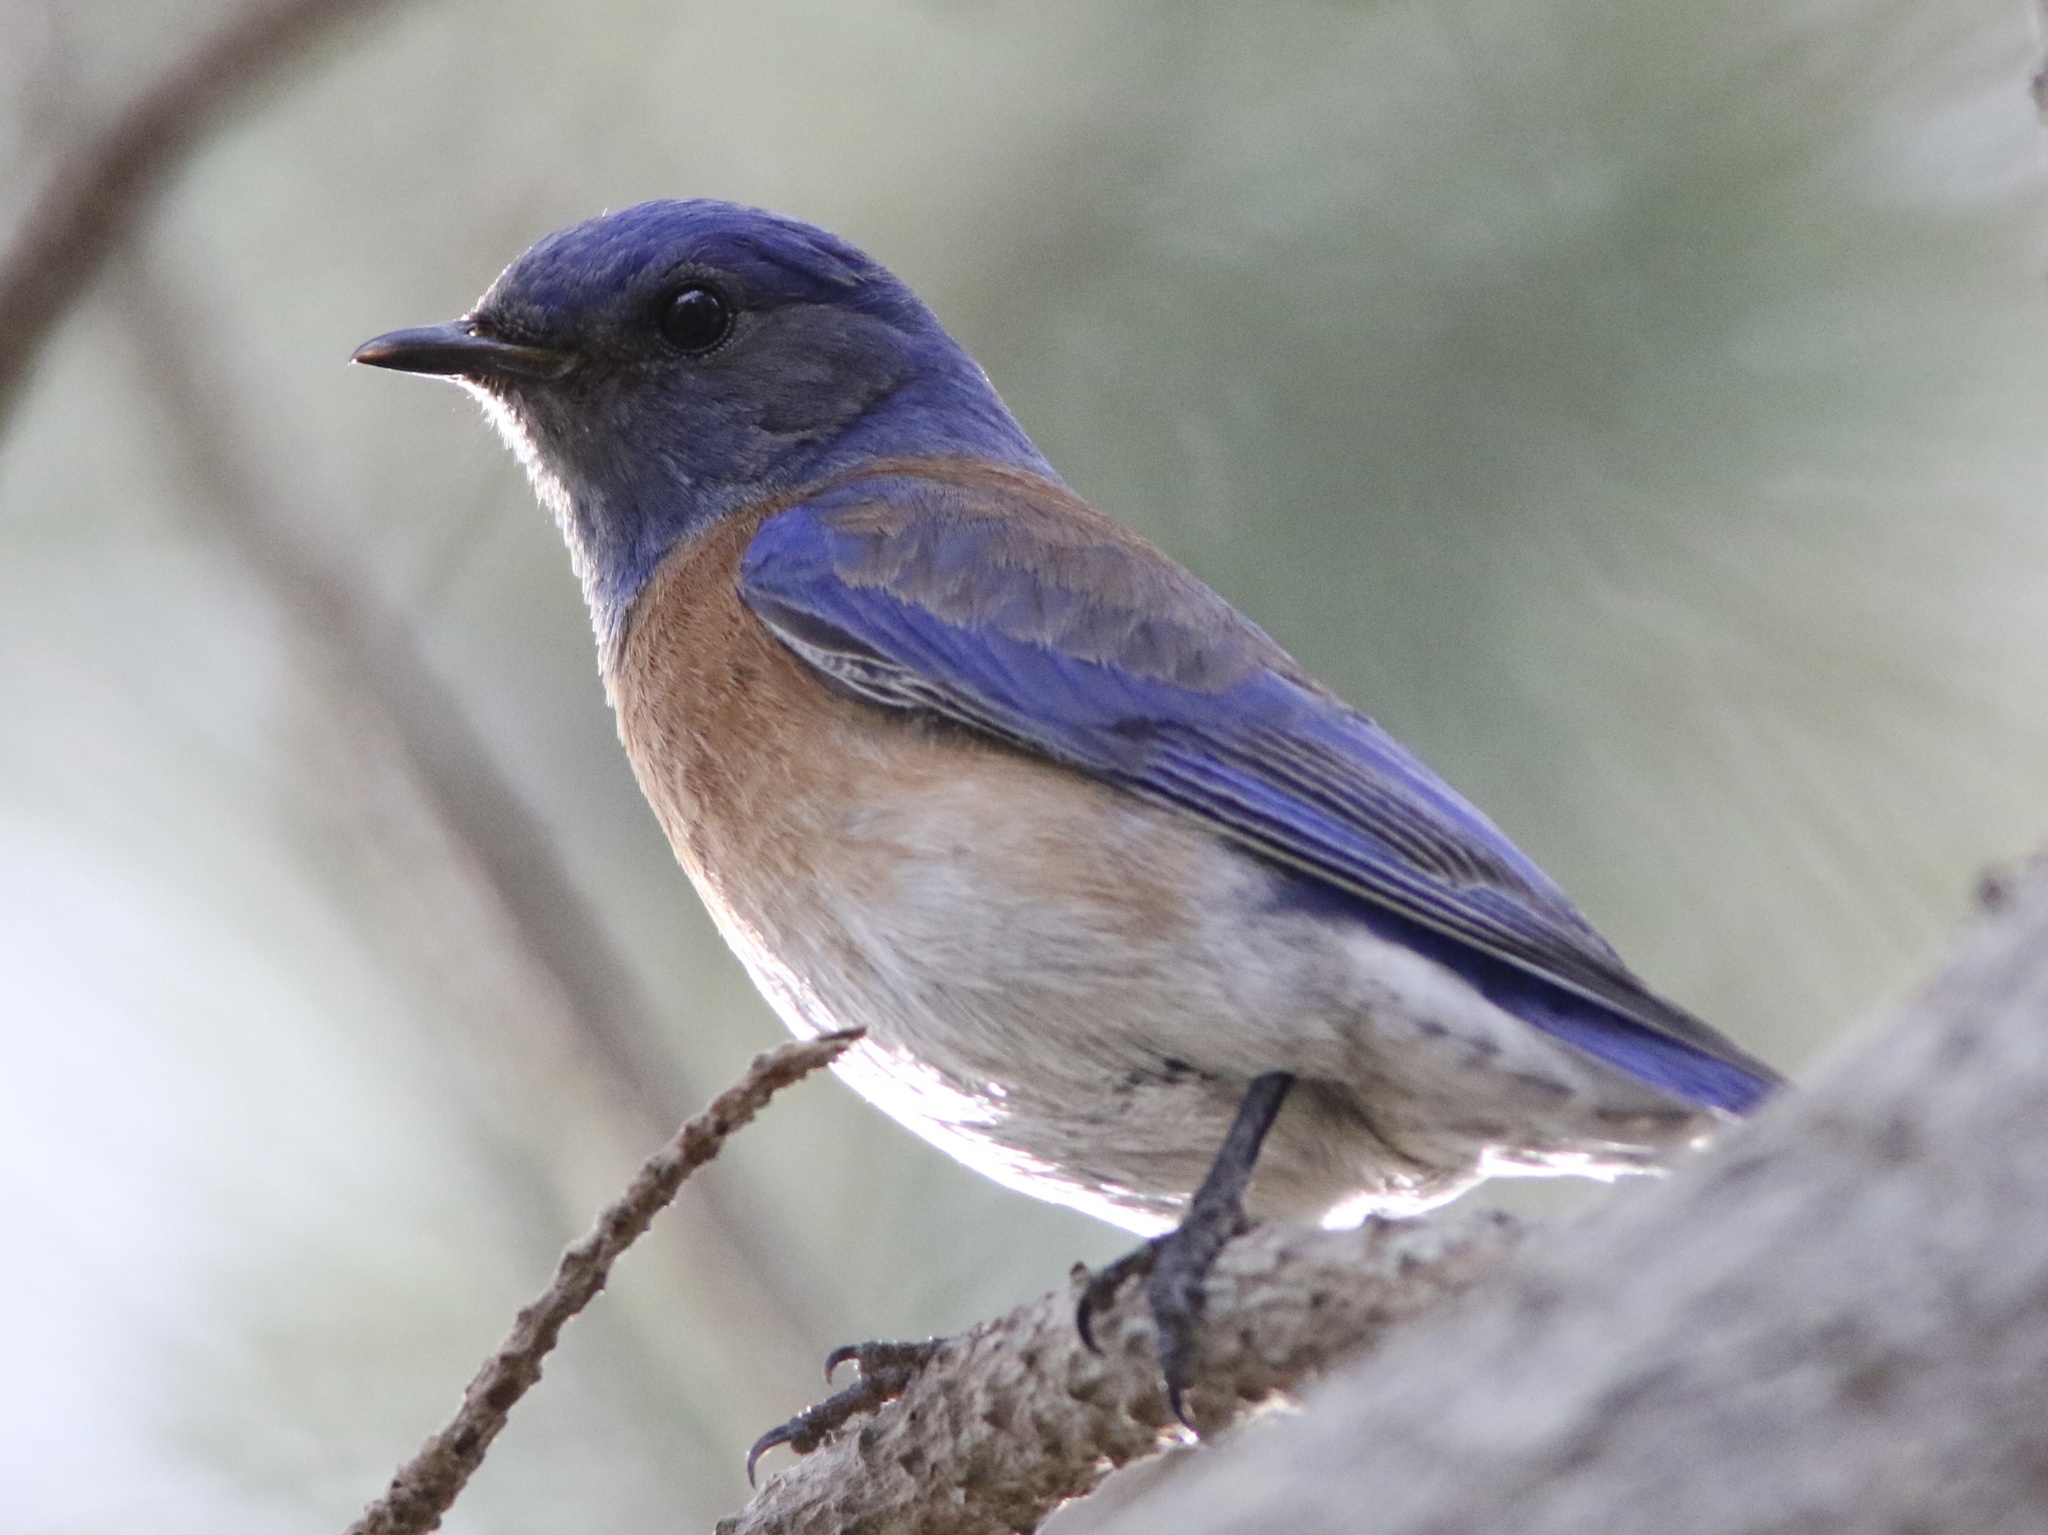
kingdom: Animalia
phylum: Chordata
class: Aves
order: Passeriformes
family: Turdidae
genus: Sialia
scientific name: Sialia mexicana
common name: Western bluebird
